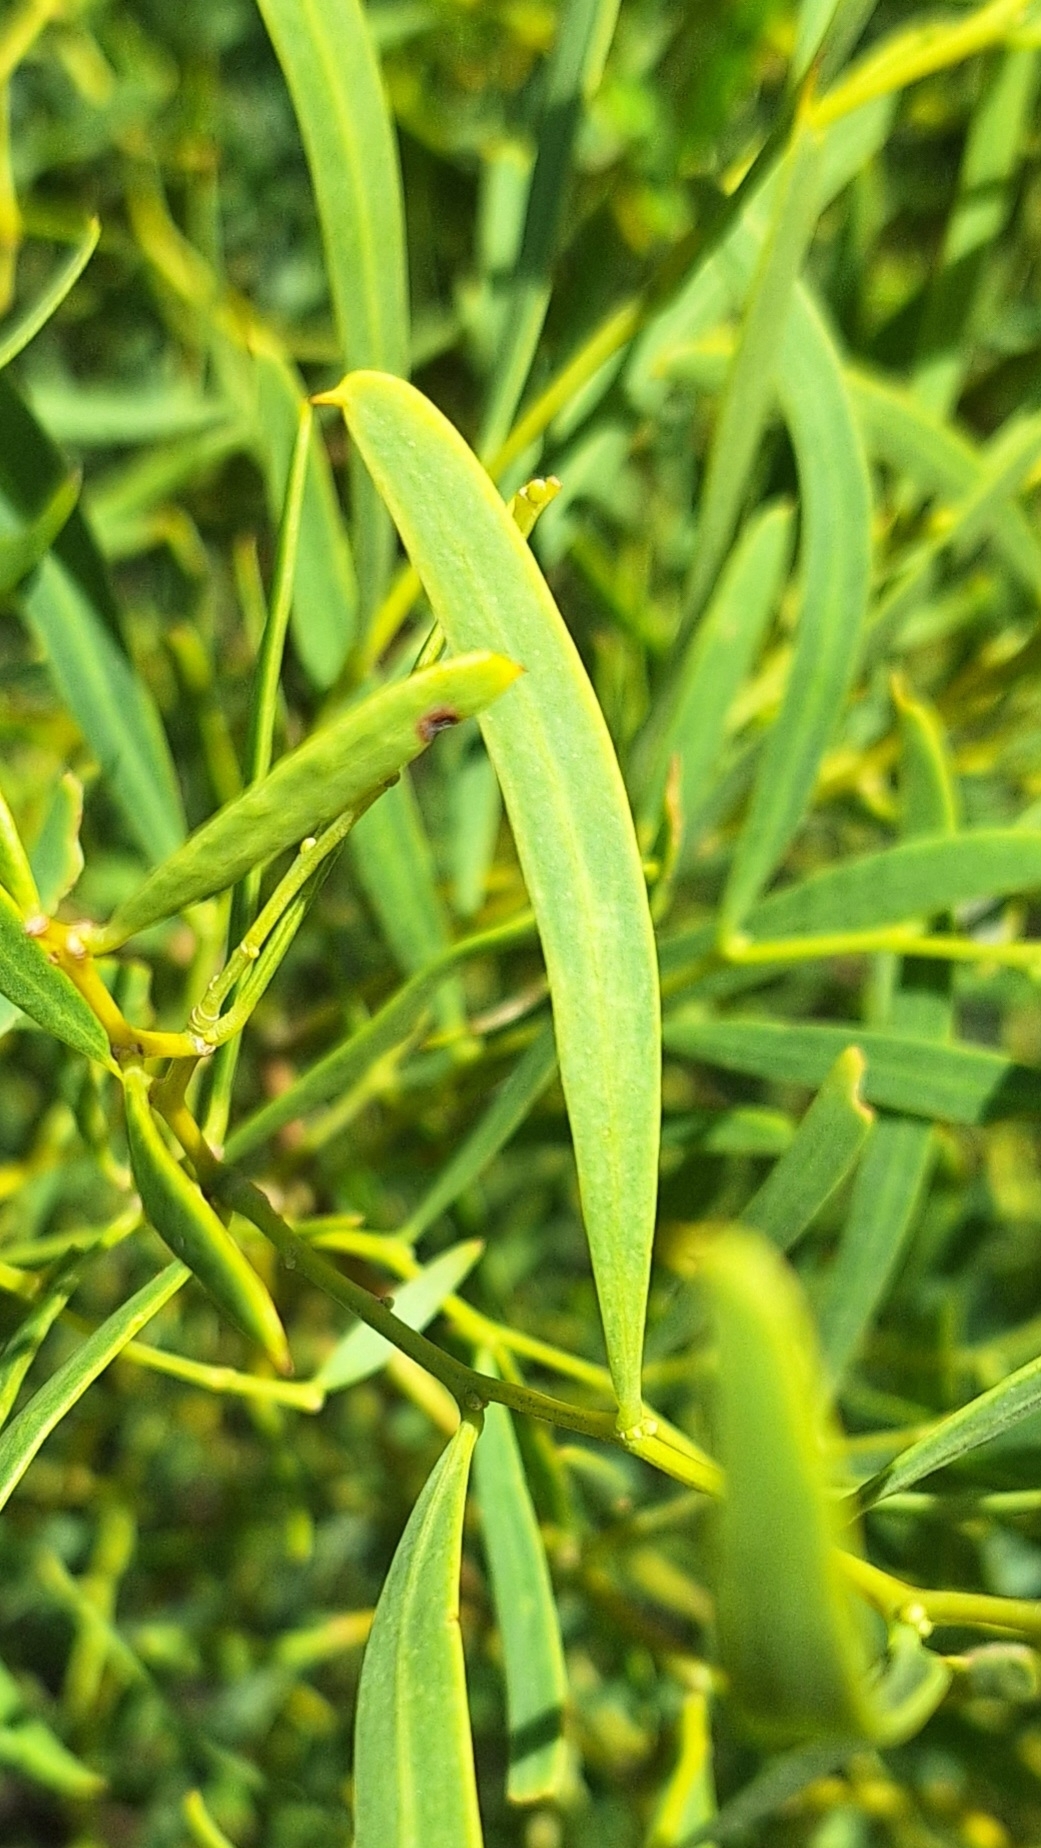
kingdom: Plantae
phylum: Tracheophyta
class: Magnoliopsida
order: Fabales
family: Fabaceae
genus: Acacia
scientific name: Acacia ligulata
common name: Dune wattle
